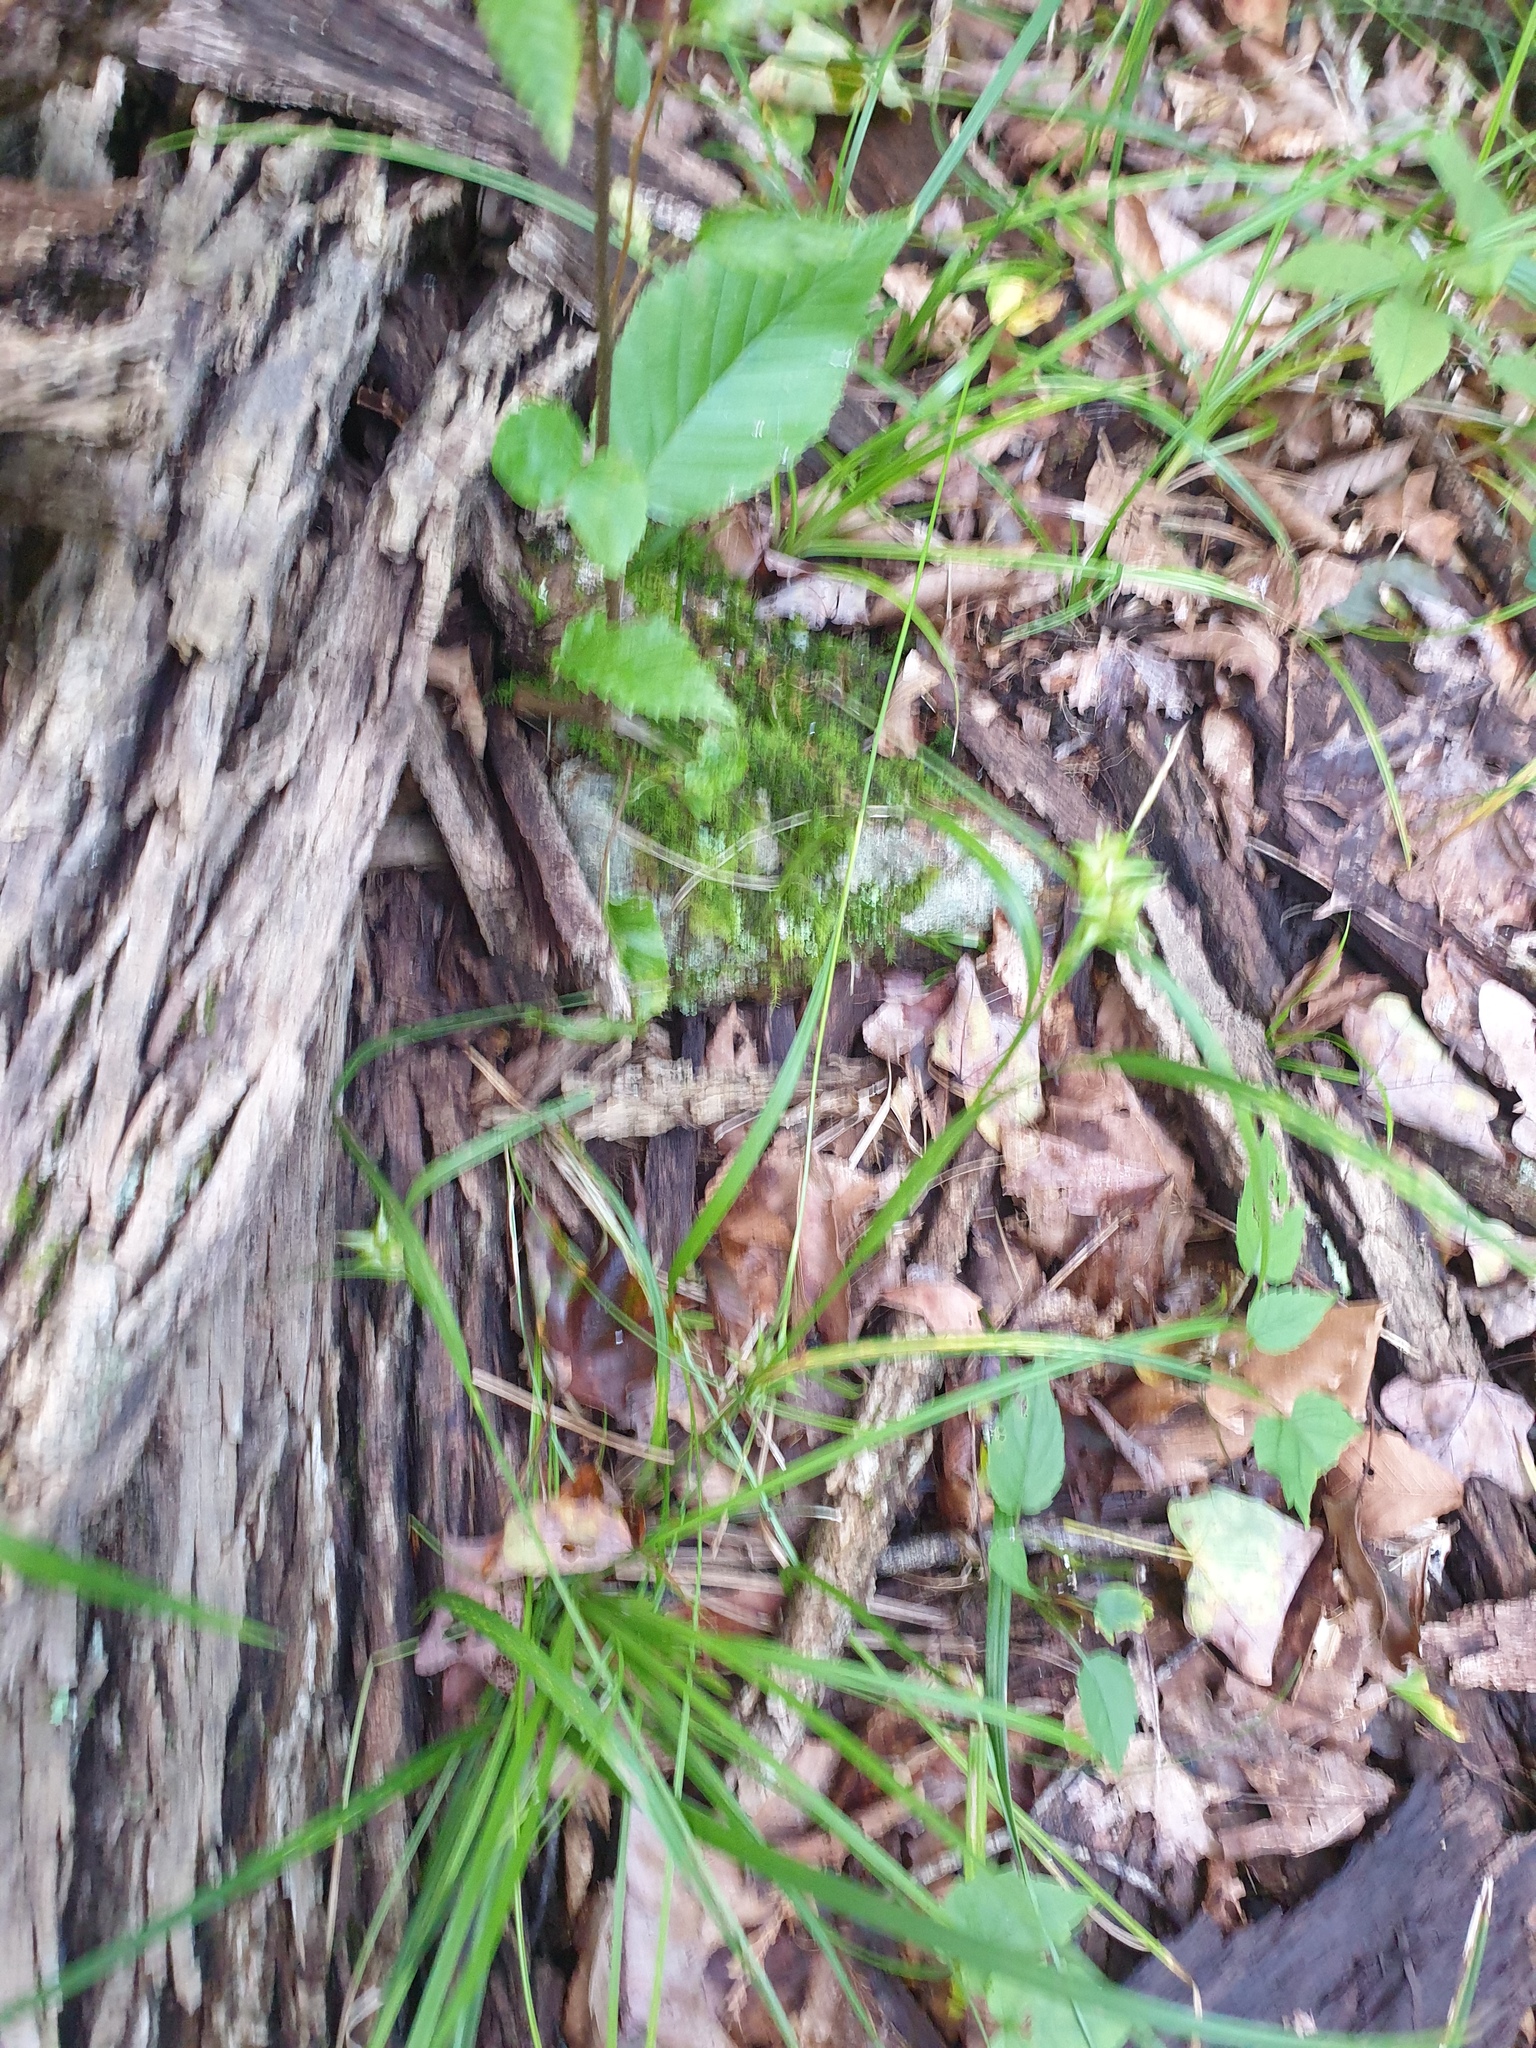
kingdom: Plantae
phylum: Tracheophyta
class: Liliopsida
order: Poales
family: Cyperaceae
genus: Carex
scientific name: Carex intumescens
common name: Greater bladder sedge
